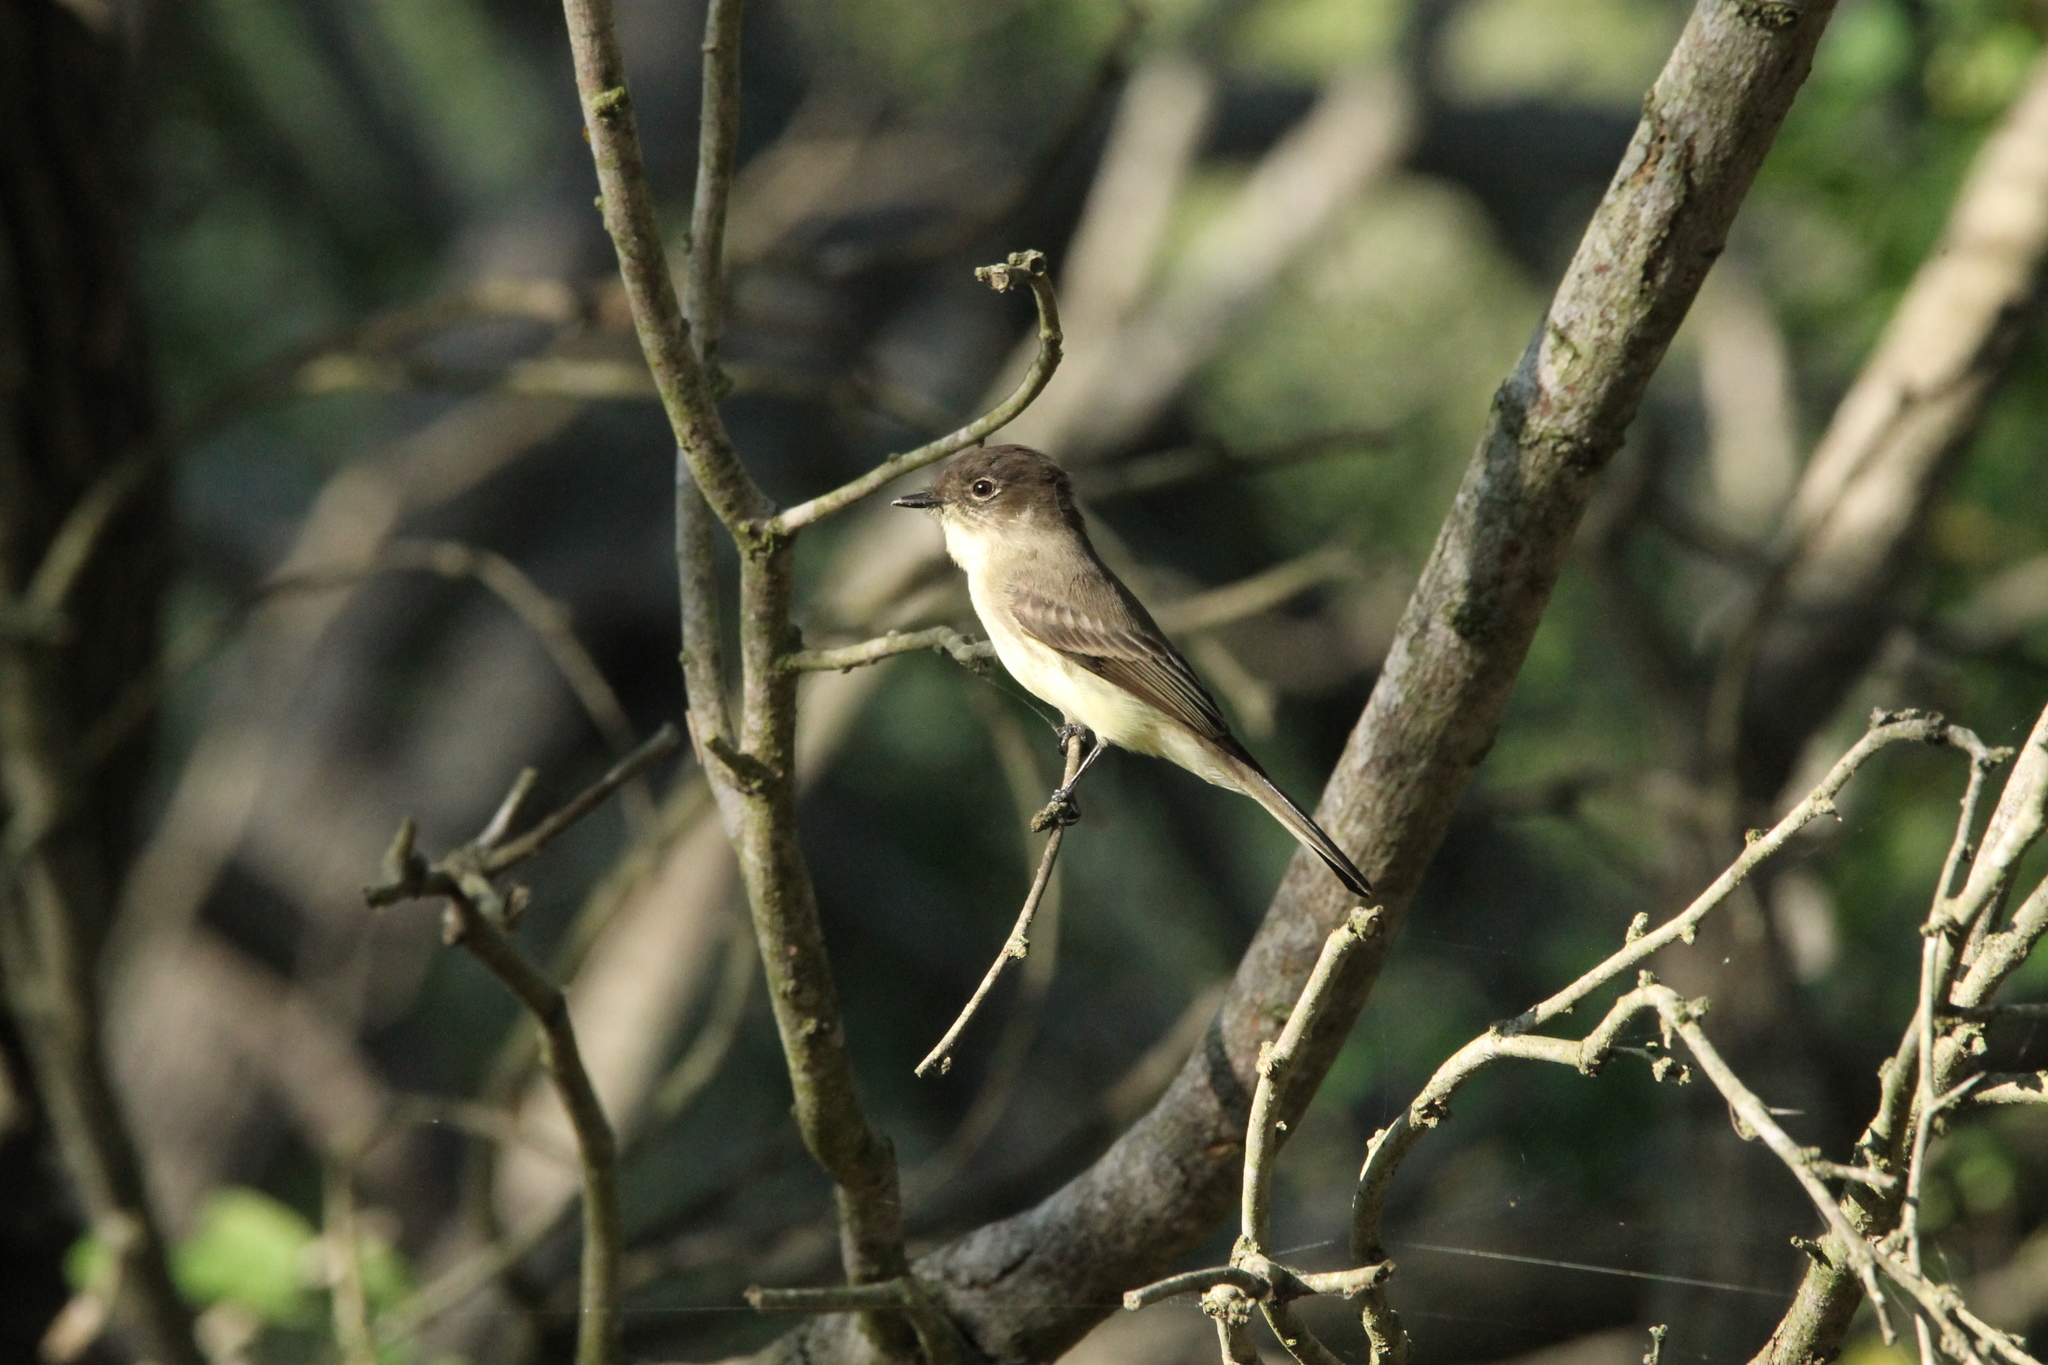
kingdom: Animalia
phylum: Chordata
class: Aves
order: Passeriformes
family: Tyrannidae
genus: Sayornis
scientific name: Sayornis phoebe
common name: Eastern phoebe
